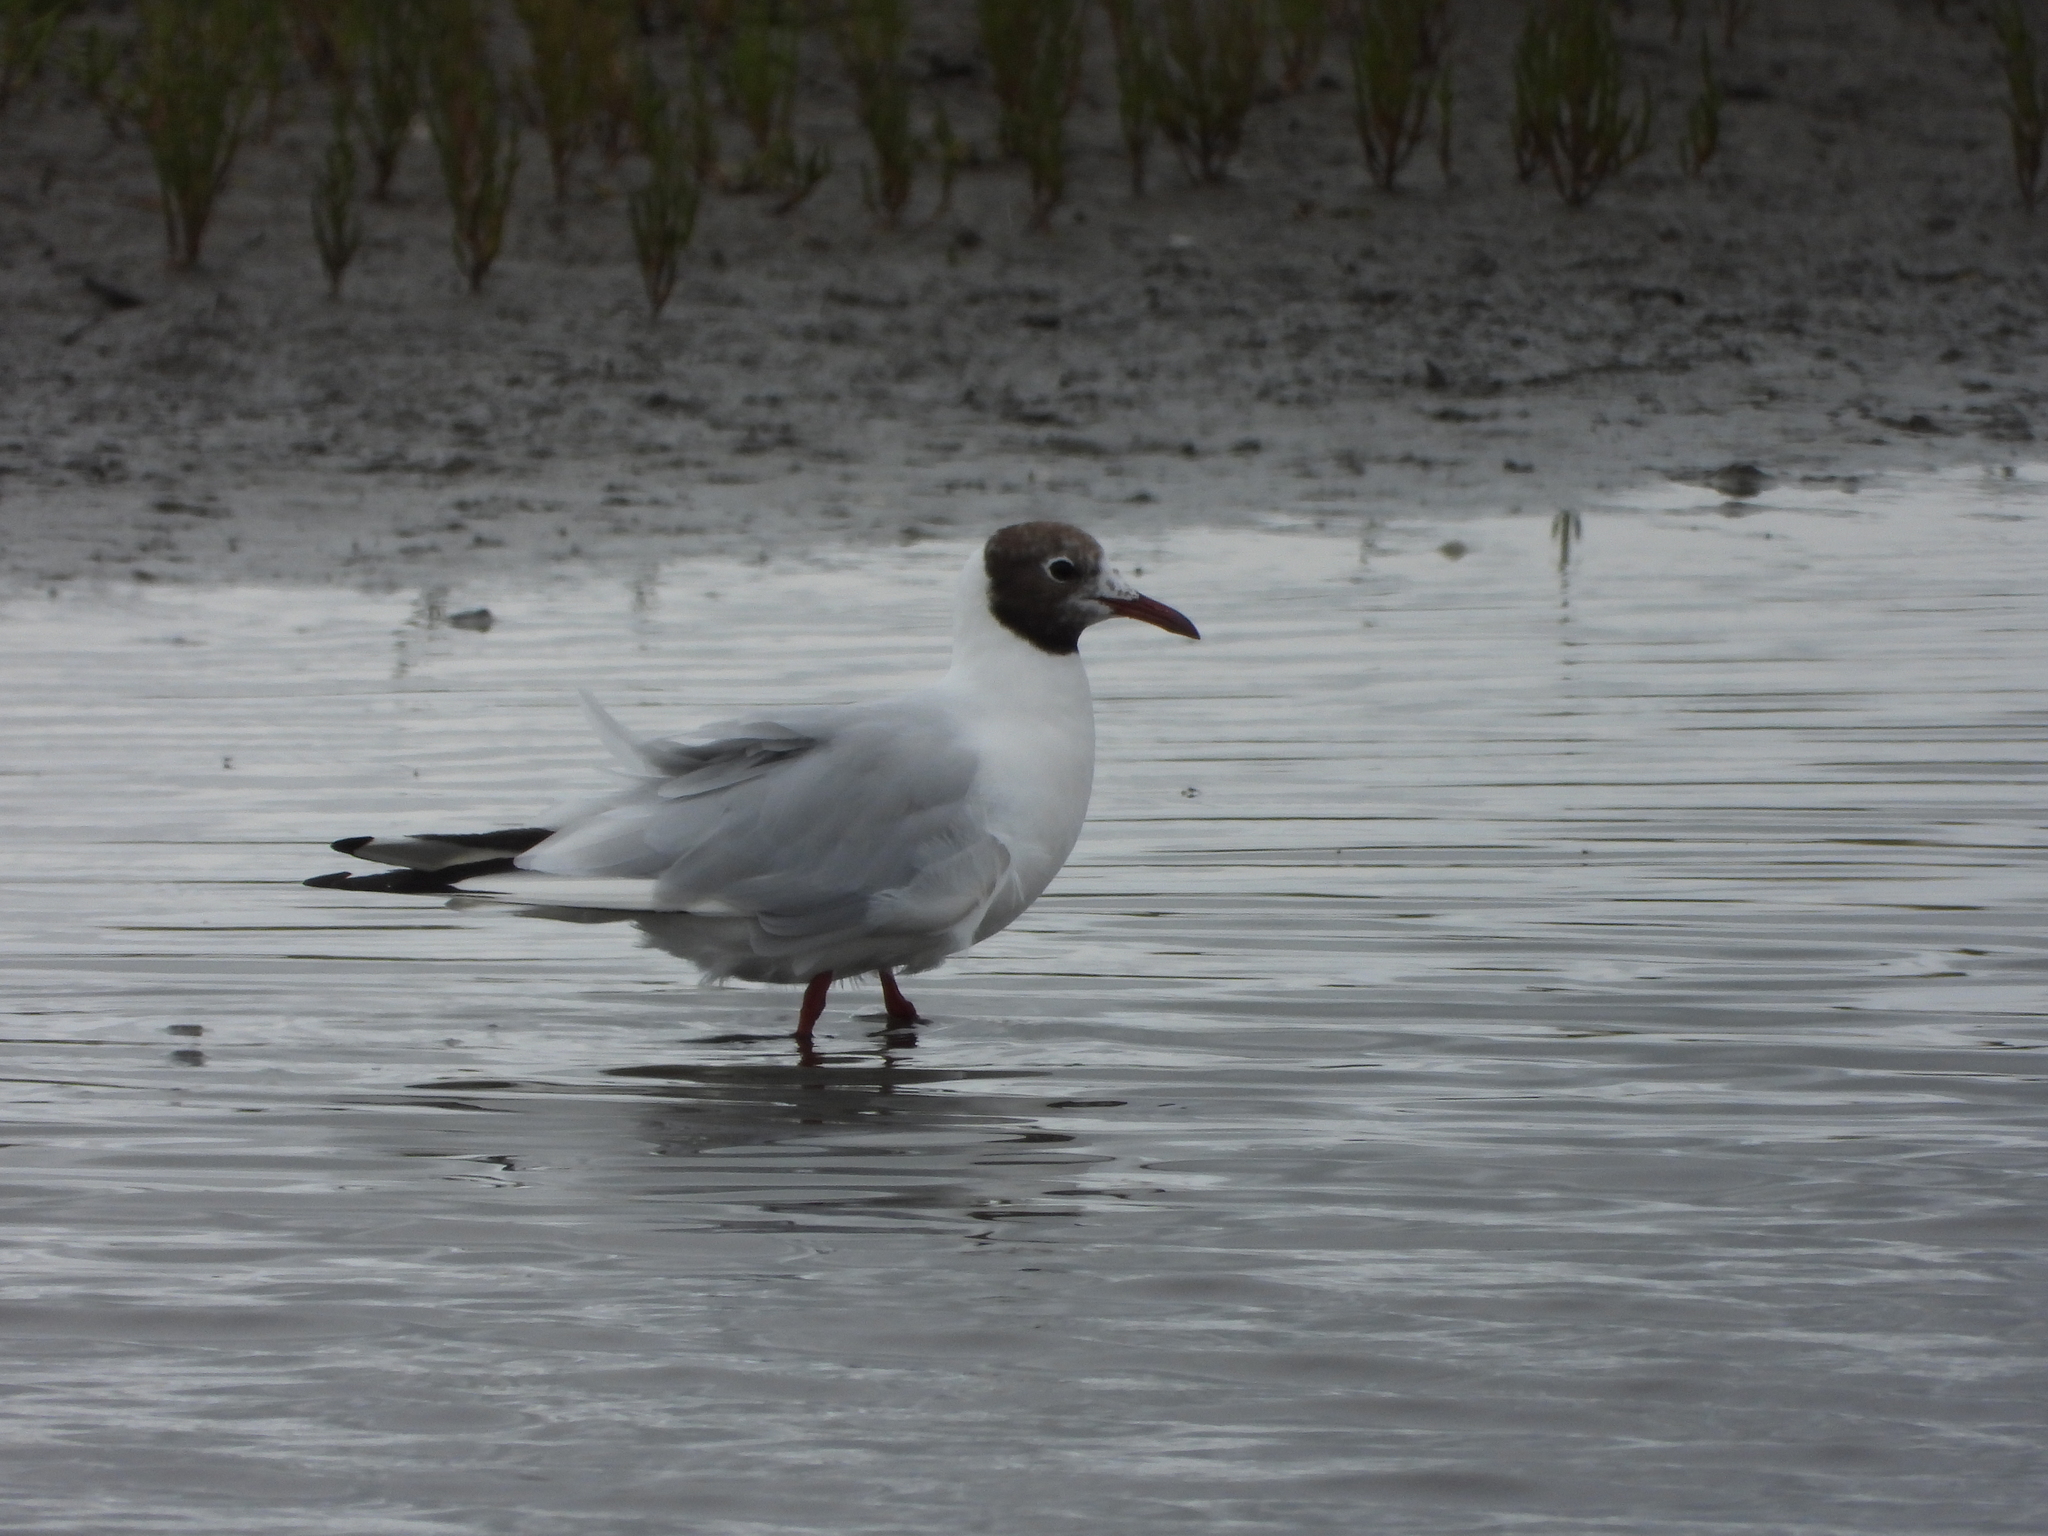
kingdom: Animalia
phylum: Chordata
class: Aves
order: Charadriiformes
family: Laridae
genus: Chroicocephalus
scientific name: Chroicocephalus ridibundus
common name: Black-headed gull
